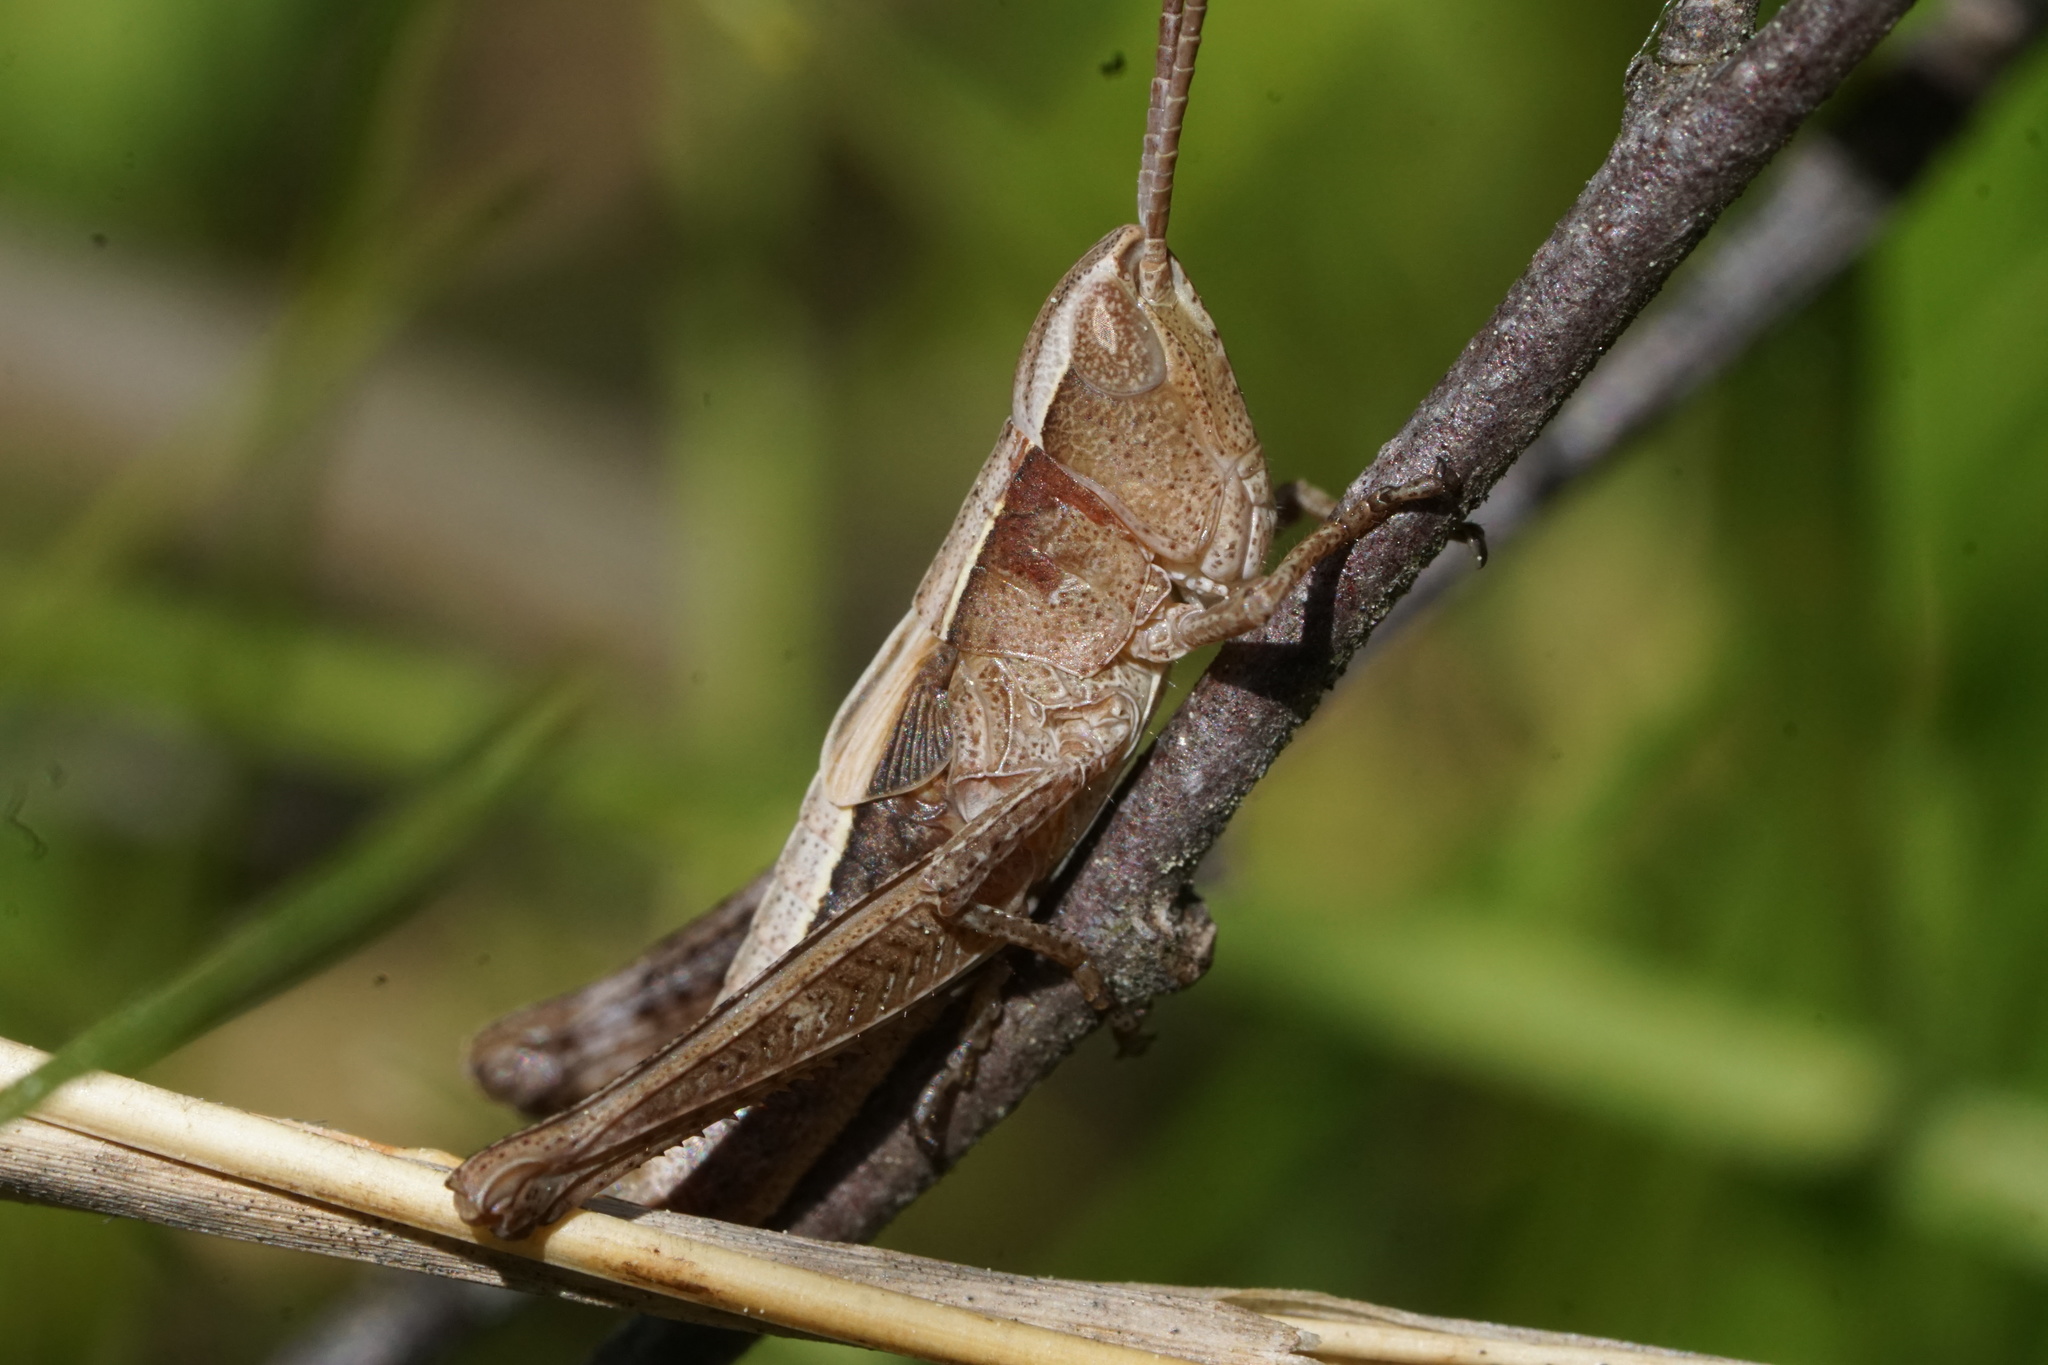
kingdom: Animalia
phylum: Arthropoda
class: Insecta
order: Orthoptera
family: Acrididae
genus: Chloealtis
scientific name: Chloealtis conspersa
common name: Sprinkled broad-winged grasshopper
